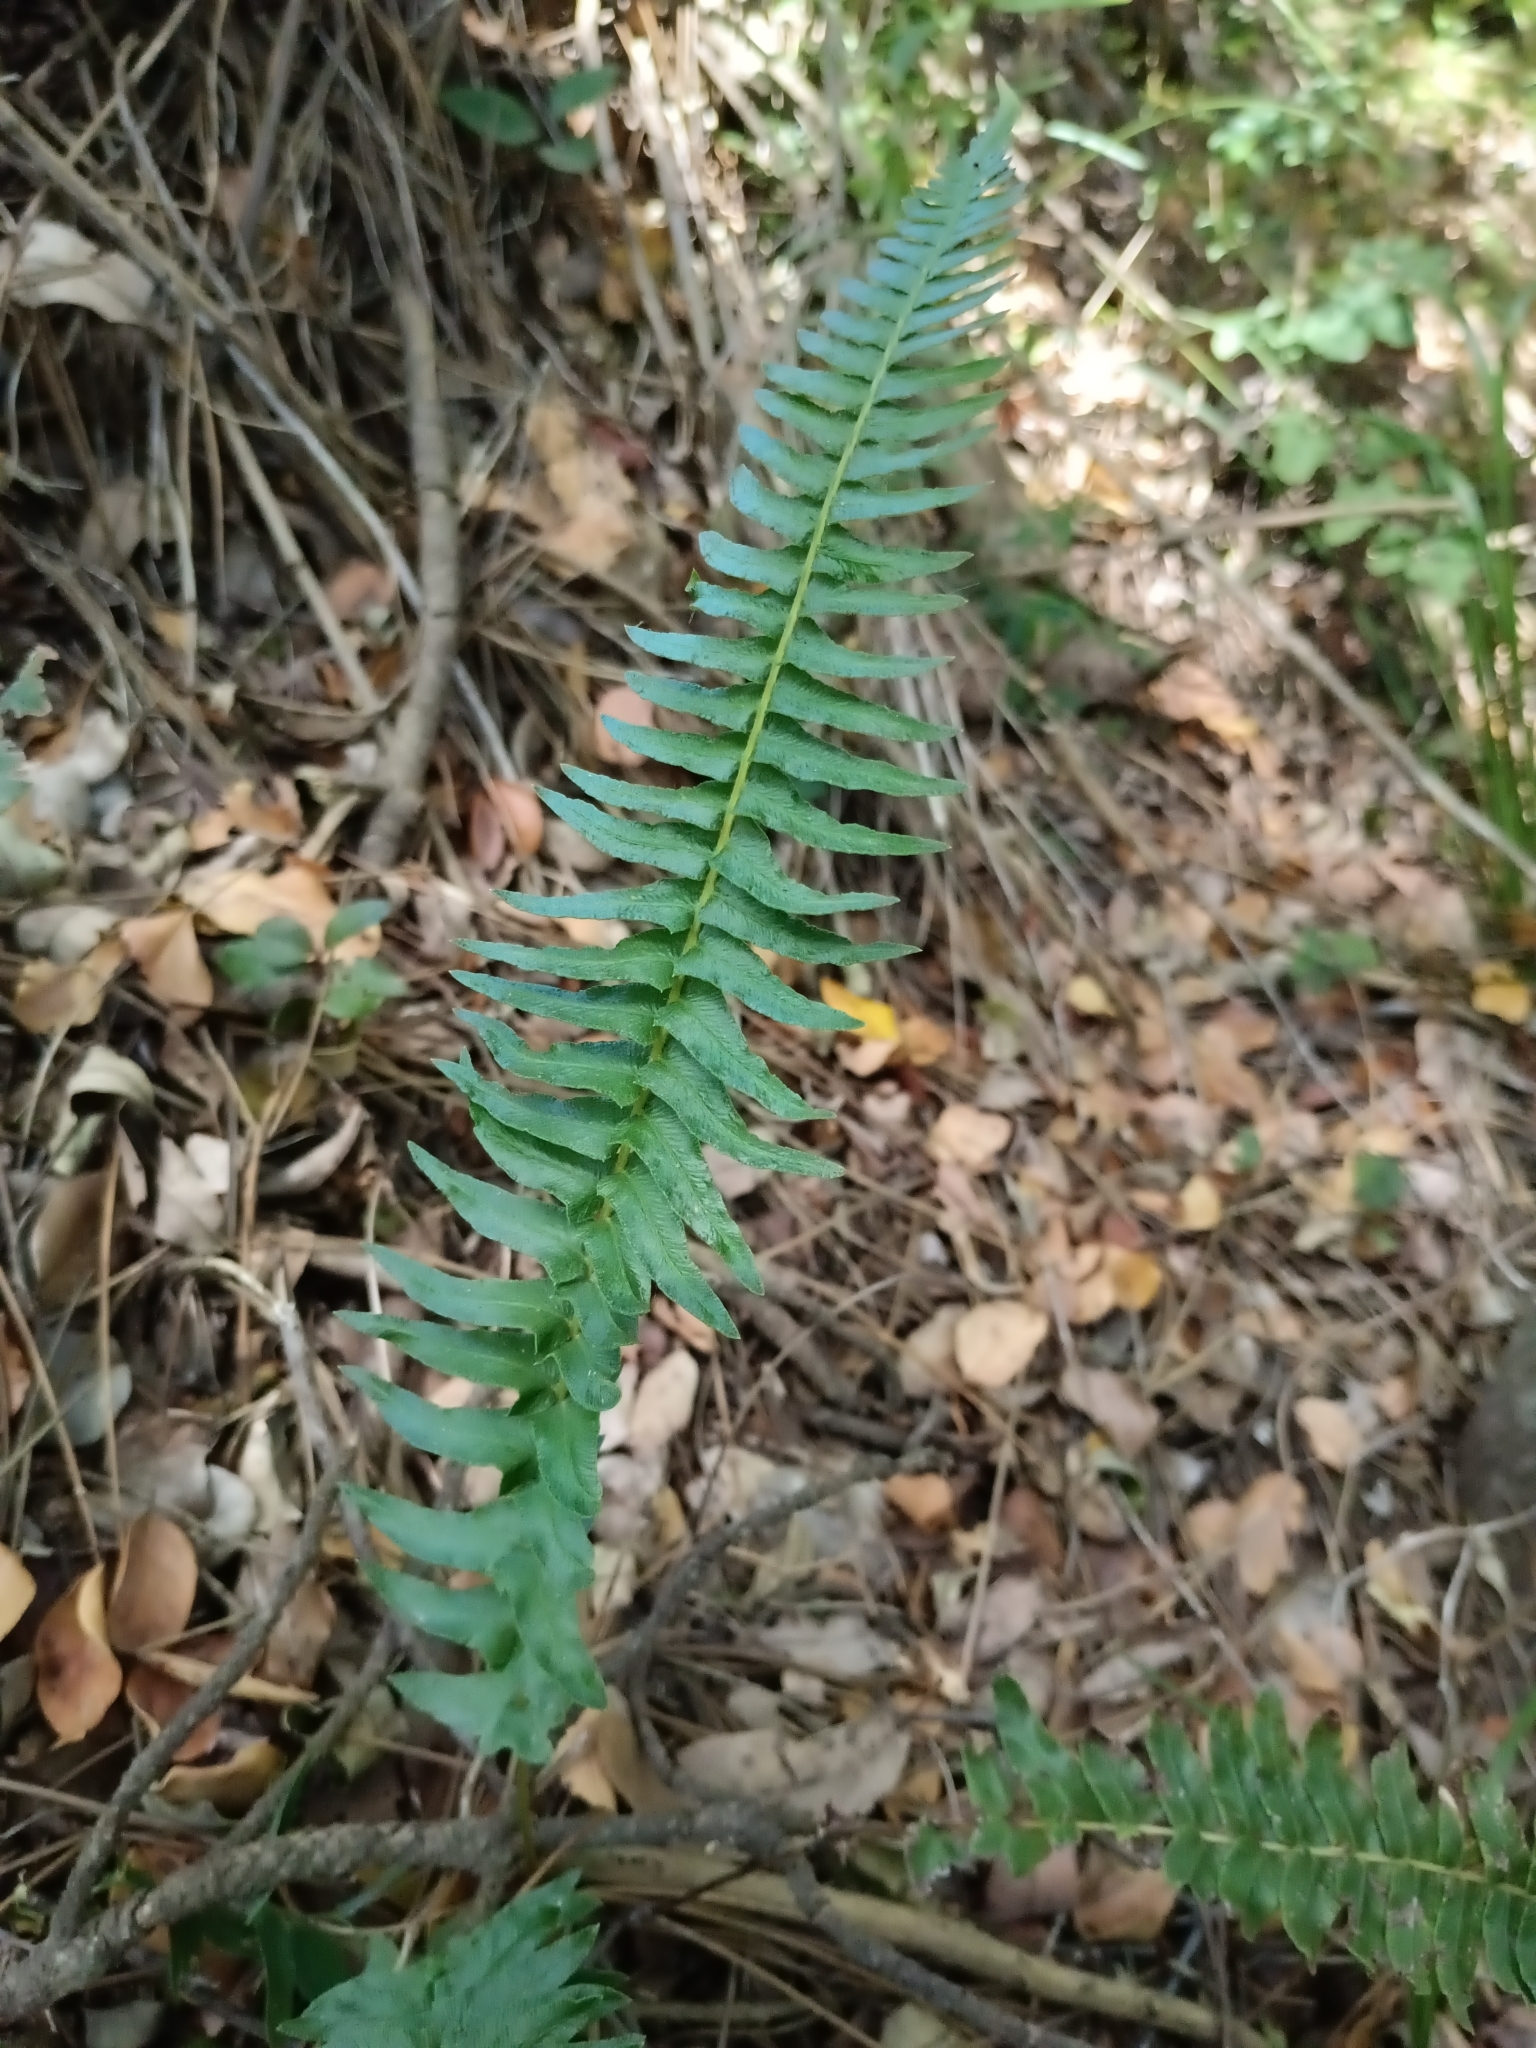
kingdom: Plantae
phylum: Tracheophyta
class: Polypodiopsida
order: Polypodiales
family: Blechnaceae
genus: Blechnum
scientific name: Blechnum hastatum
